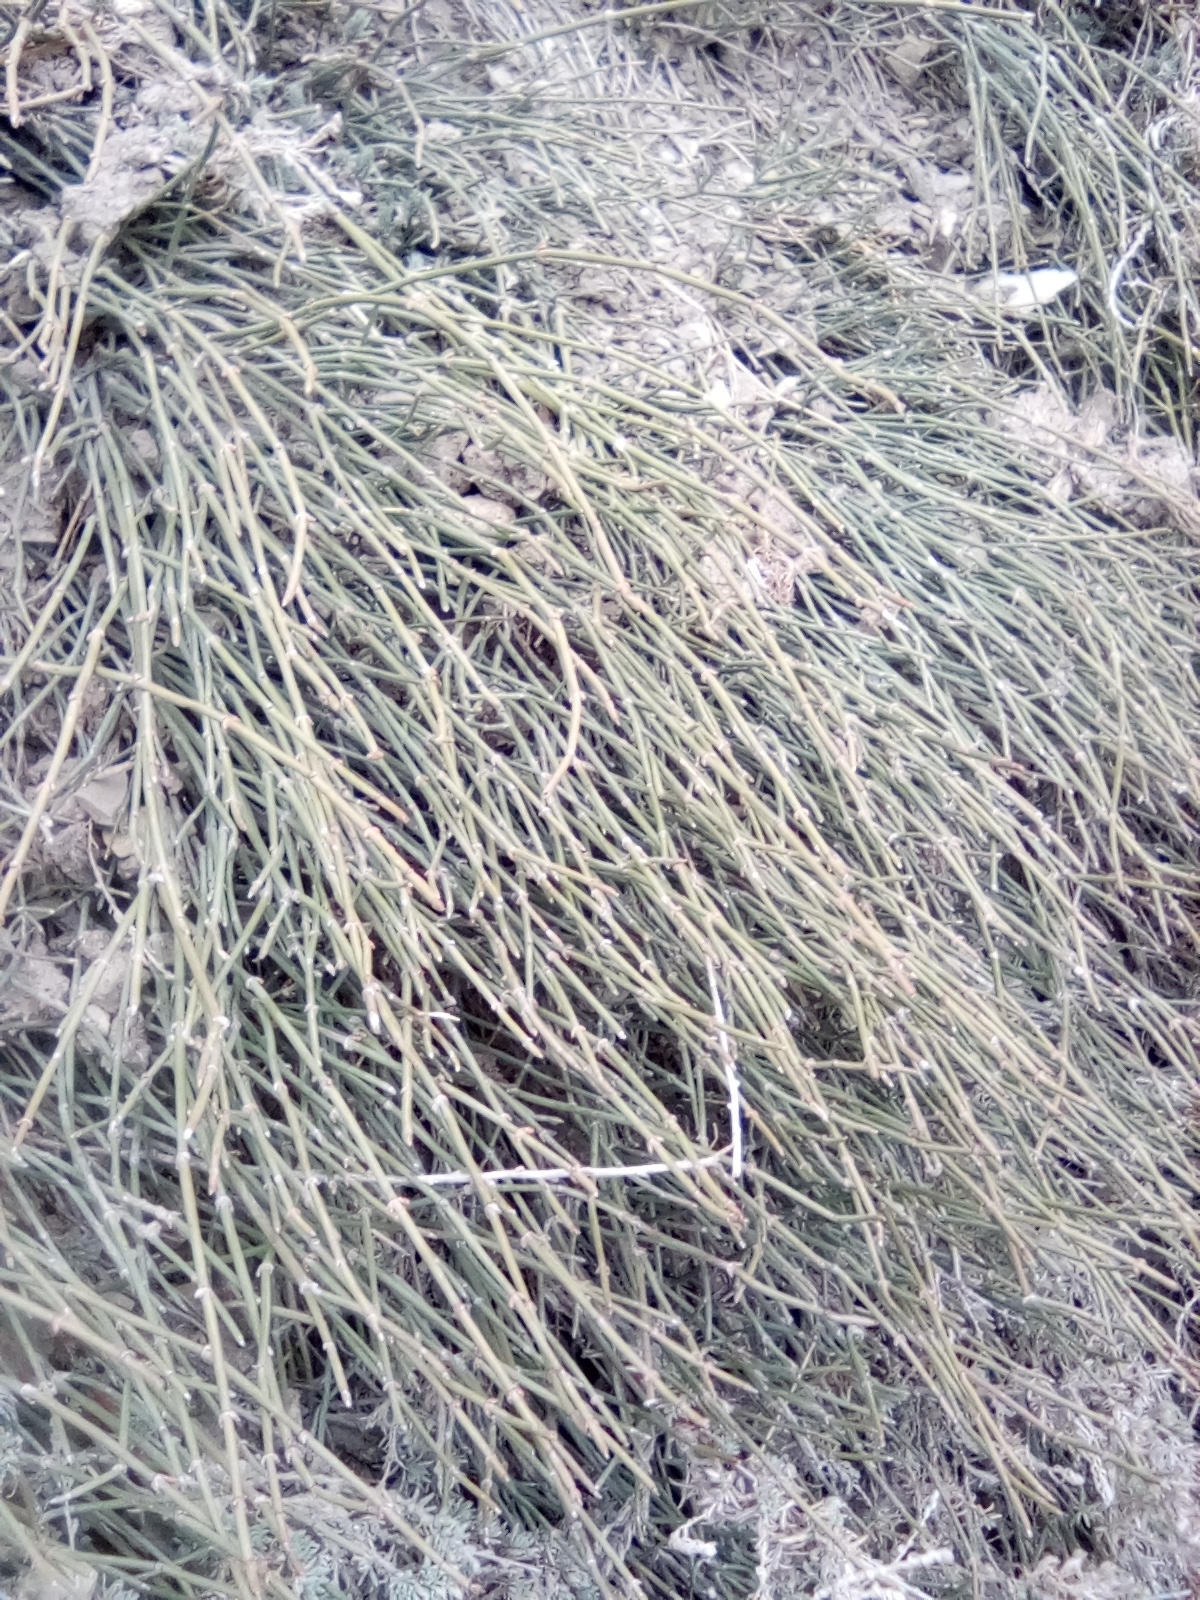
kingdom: Plantae
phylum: Tracheophyta
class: Gnetopsida
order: Ephedrales
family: Ephedraceae
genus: Ephedra
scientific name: Ephedra distachya
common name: Sea grape
